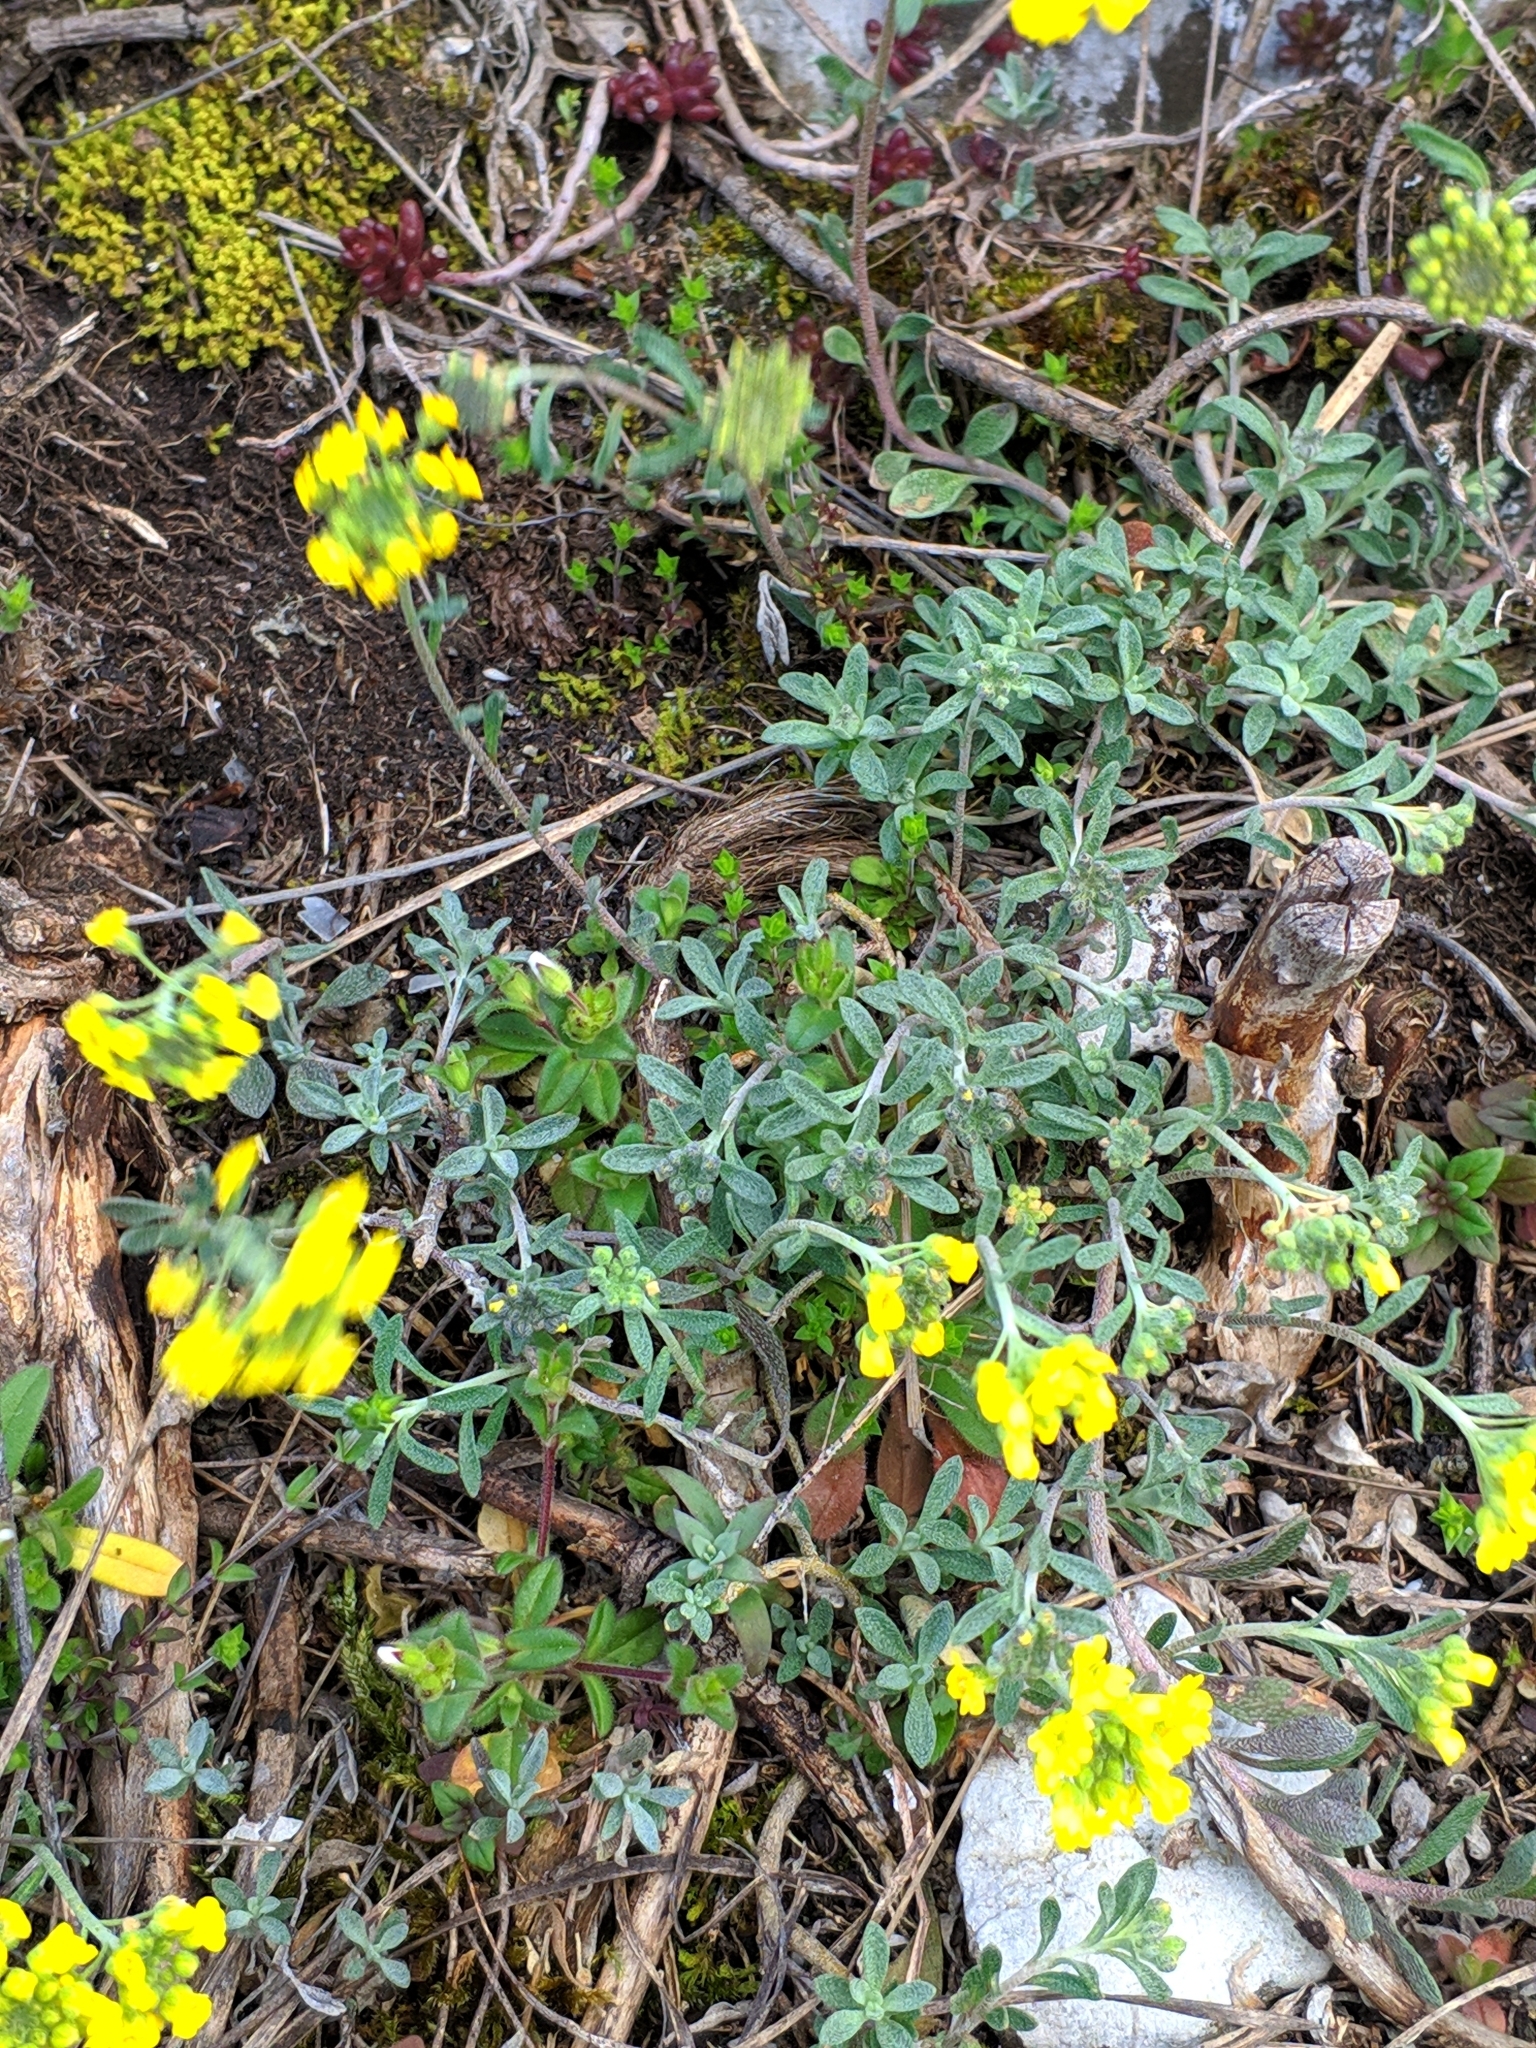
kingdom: Plantae
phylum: Tracheophyta
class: Magnoliopsida
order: Brassicales
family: Brassicaceae
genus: Alyssum
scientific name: Alyssum gmelinii
